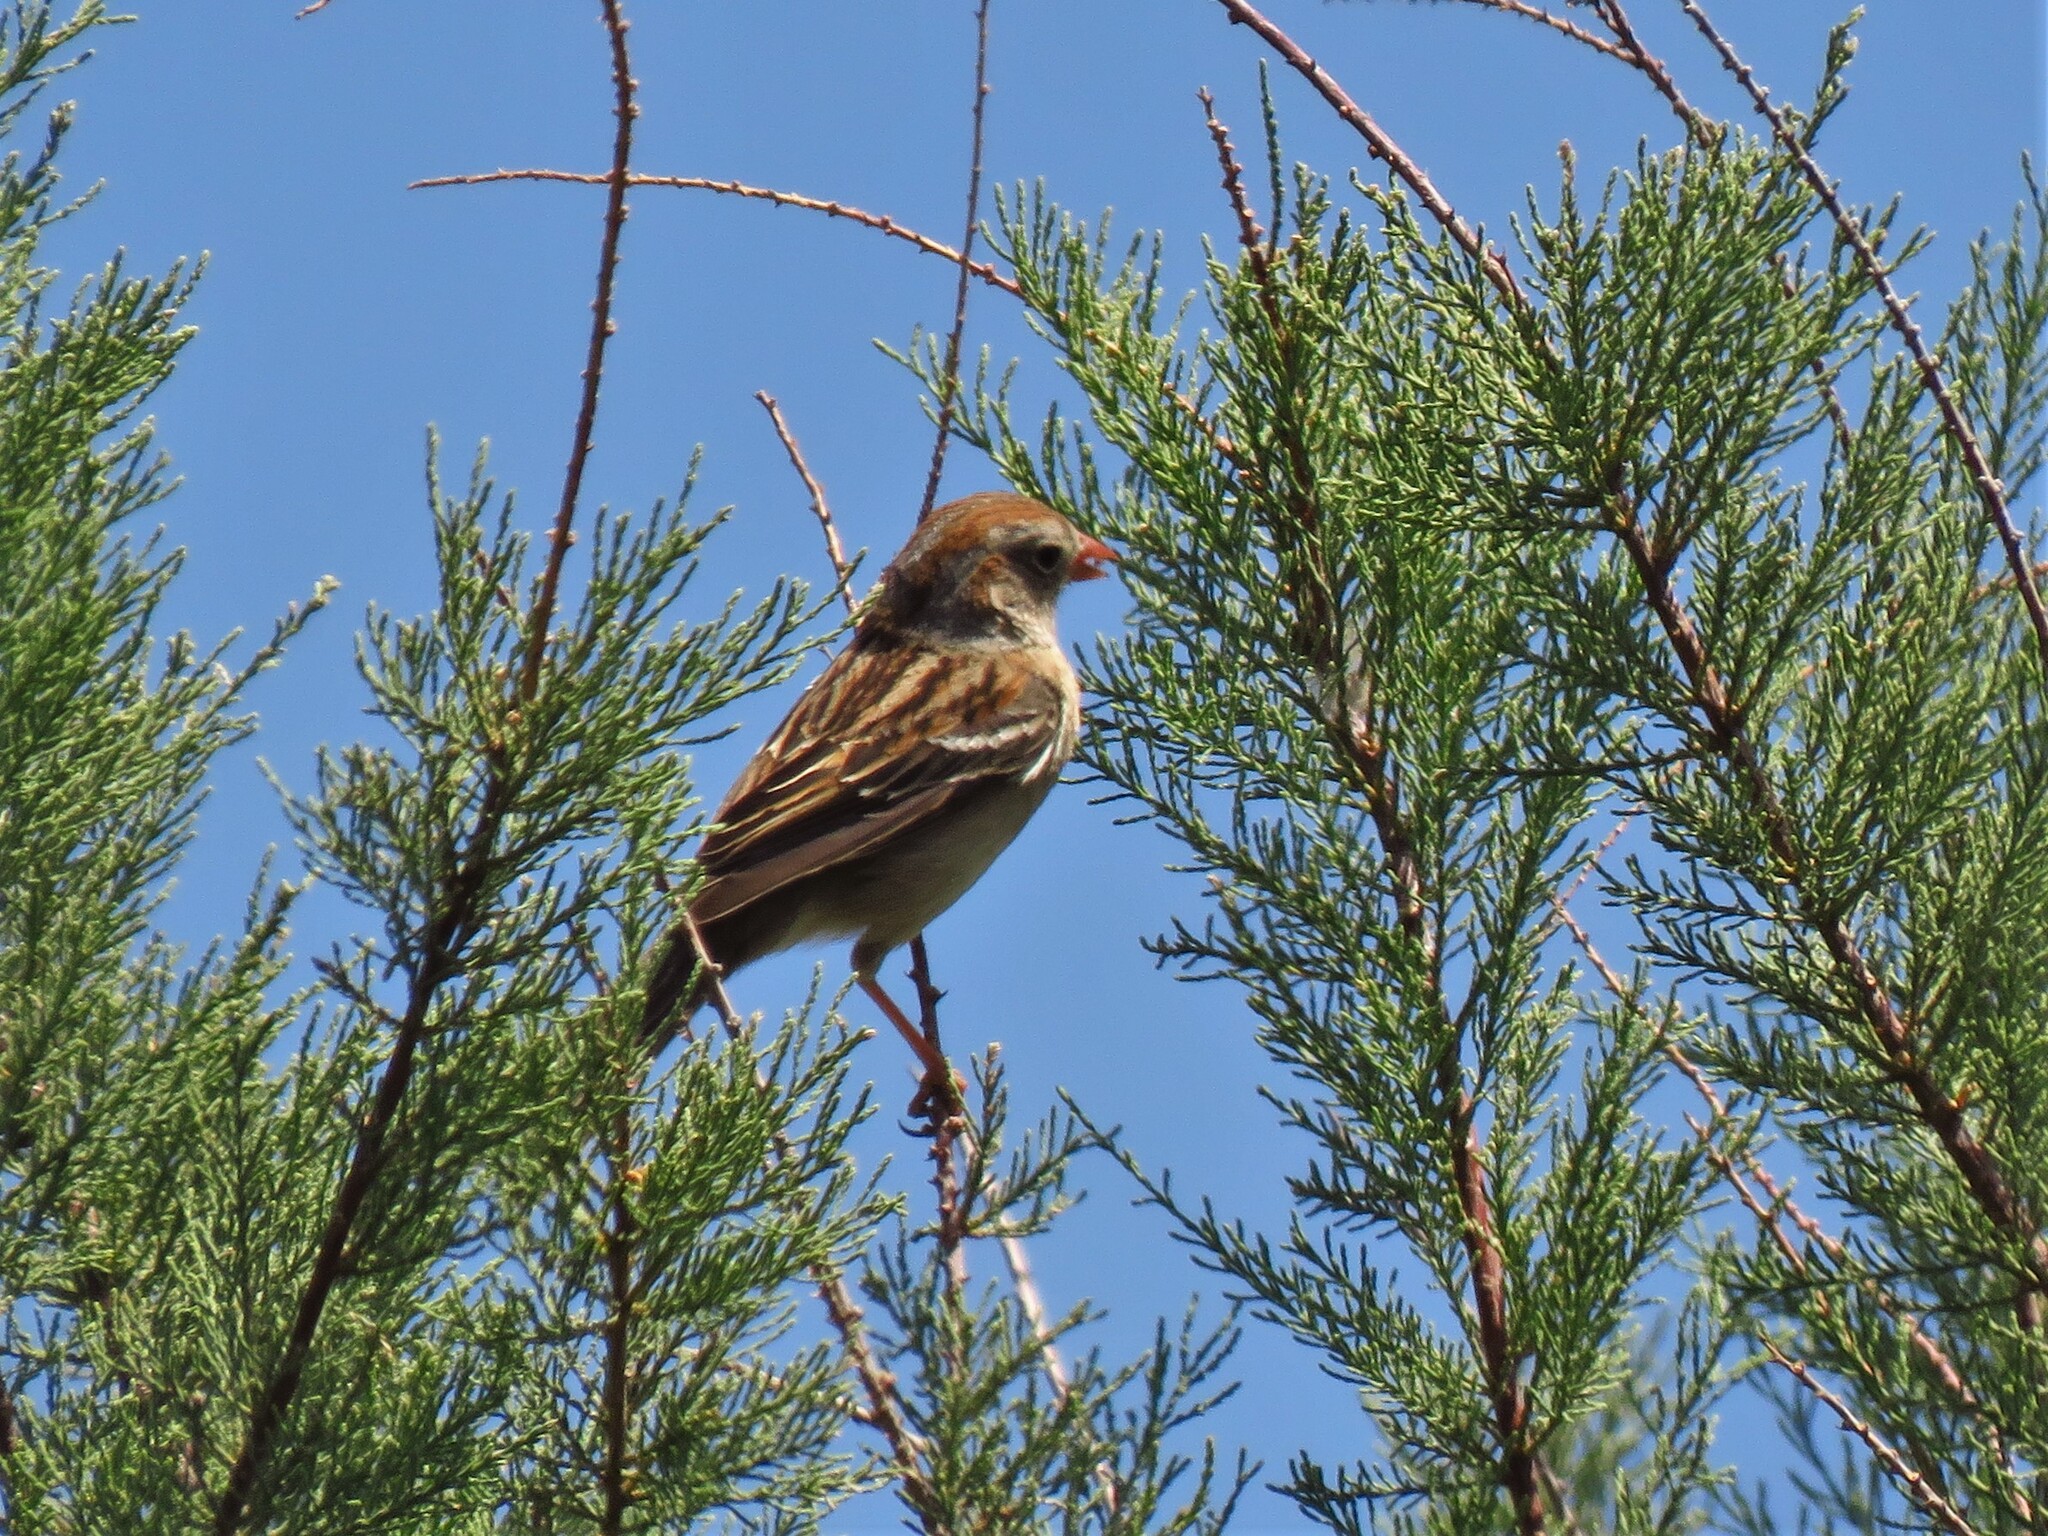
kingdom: Animalia
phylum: Chordata
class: Aves
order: Passeriformes
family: Passerellidae
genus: Spizella
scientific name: Spizella pusilla
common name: Field sparrow
